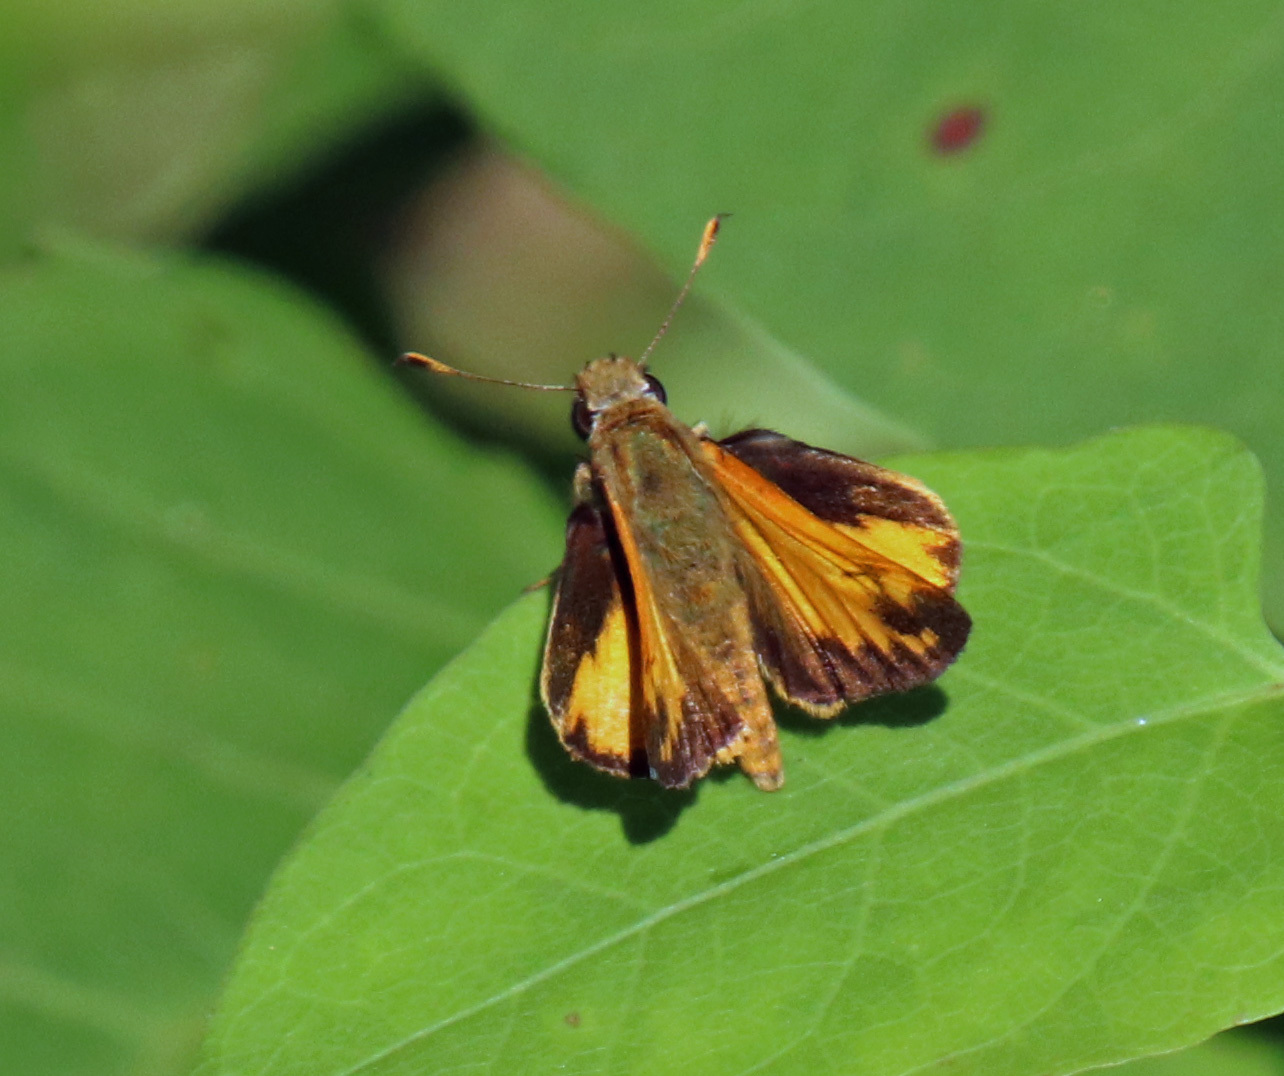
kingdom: Animalia
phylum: Arthropoda
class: Insecta
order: Lepidoptera
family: Hesperiidae
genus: Lon
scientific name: Lon zabulon
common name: Zabulon skipper
